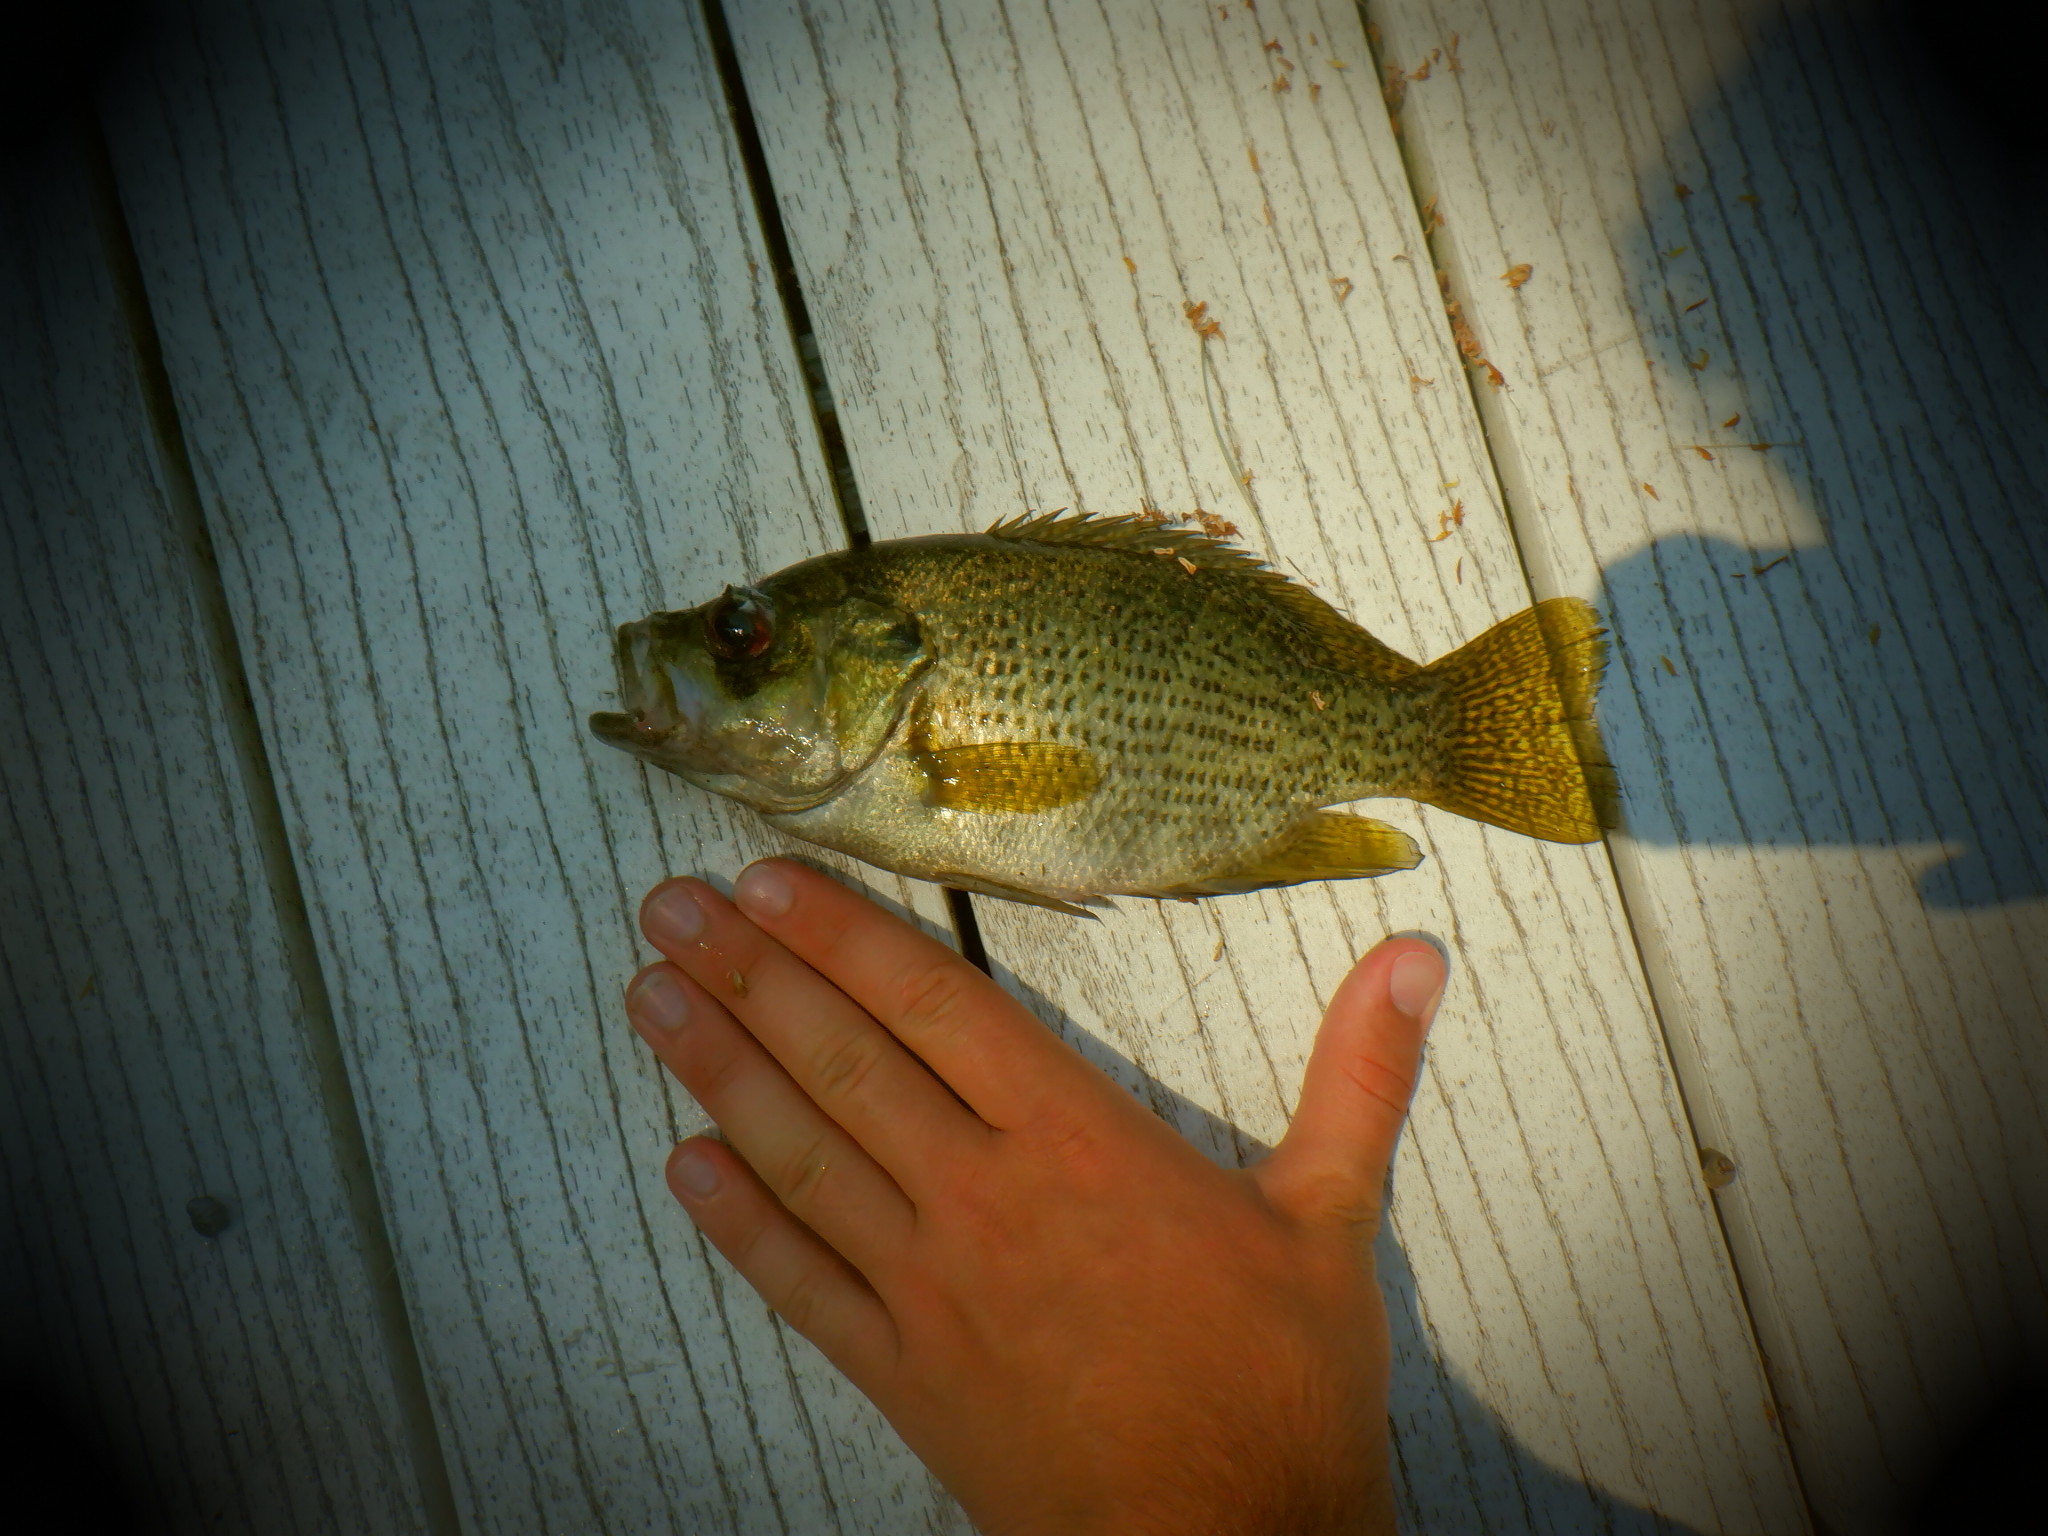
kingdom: Animalia
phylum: Chordata
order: Perciformes
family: Centrarchidae
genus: Ambloplites
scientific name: Ambloplites rupestris
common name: Rock bass
